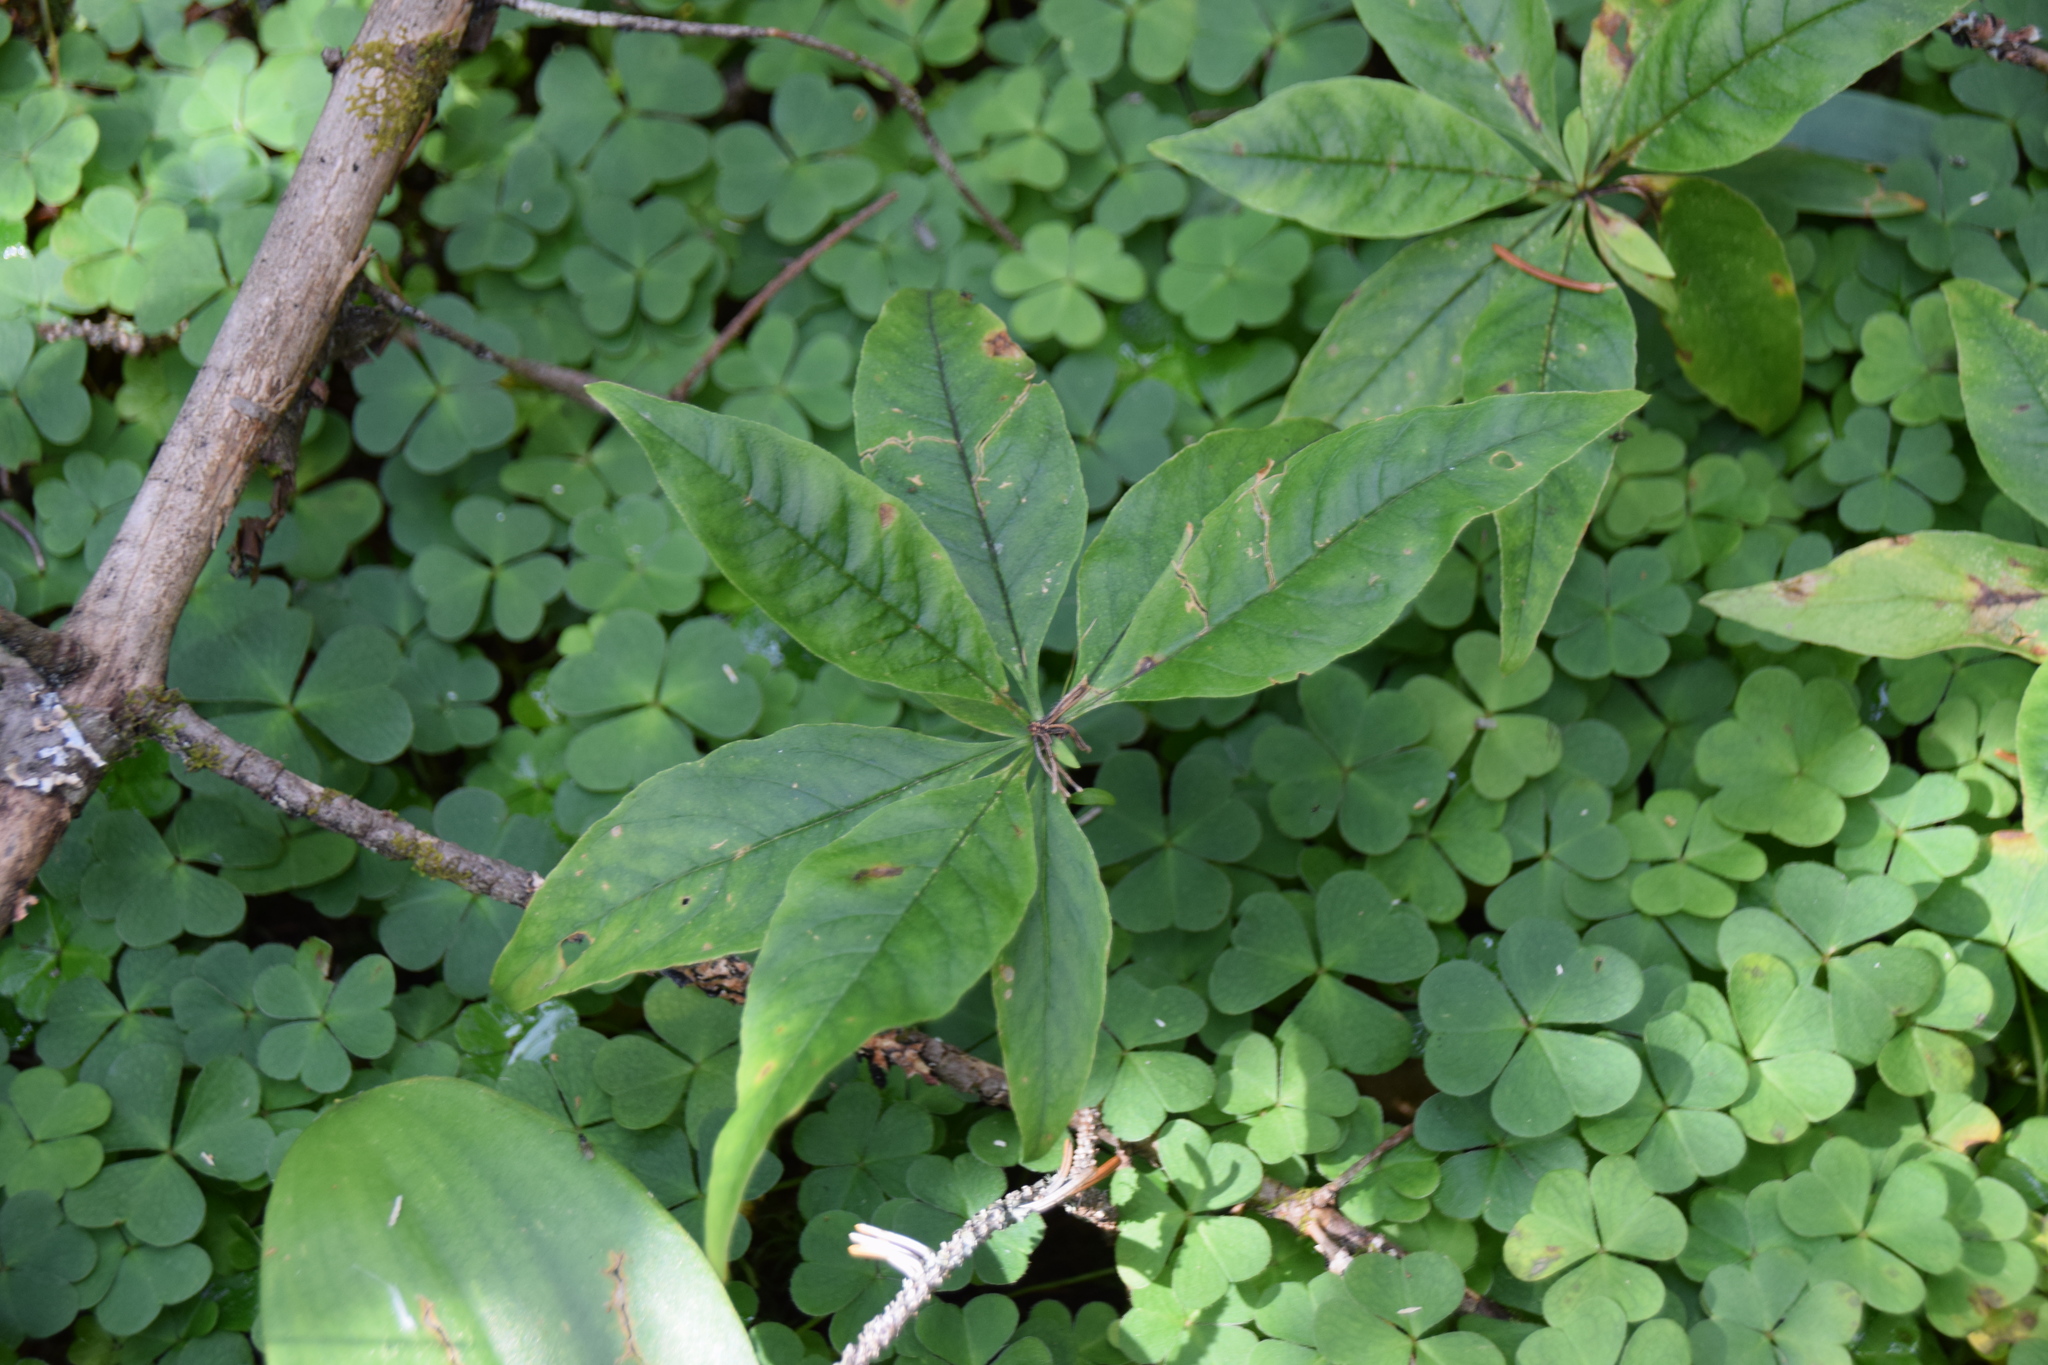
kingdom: Plantae
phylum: Tracheophyta
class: Magnoliopsida
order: Ericales
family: Primulaceae
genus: Lysimachia
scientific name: Lysimachia borealis
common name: American starflower
